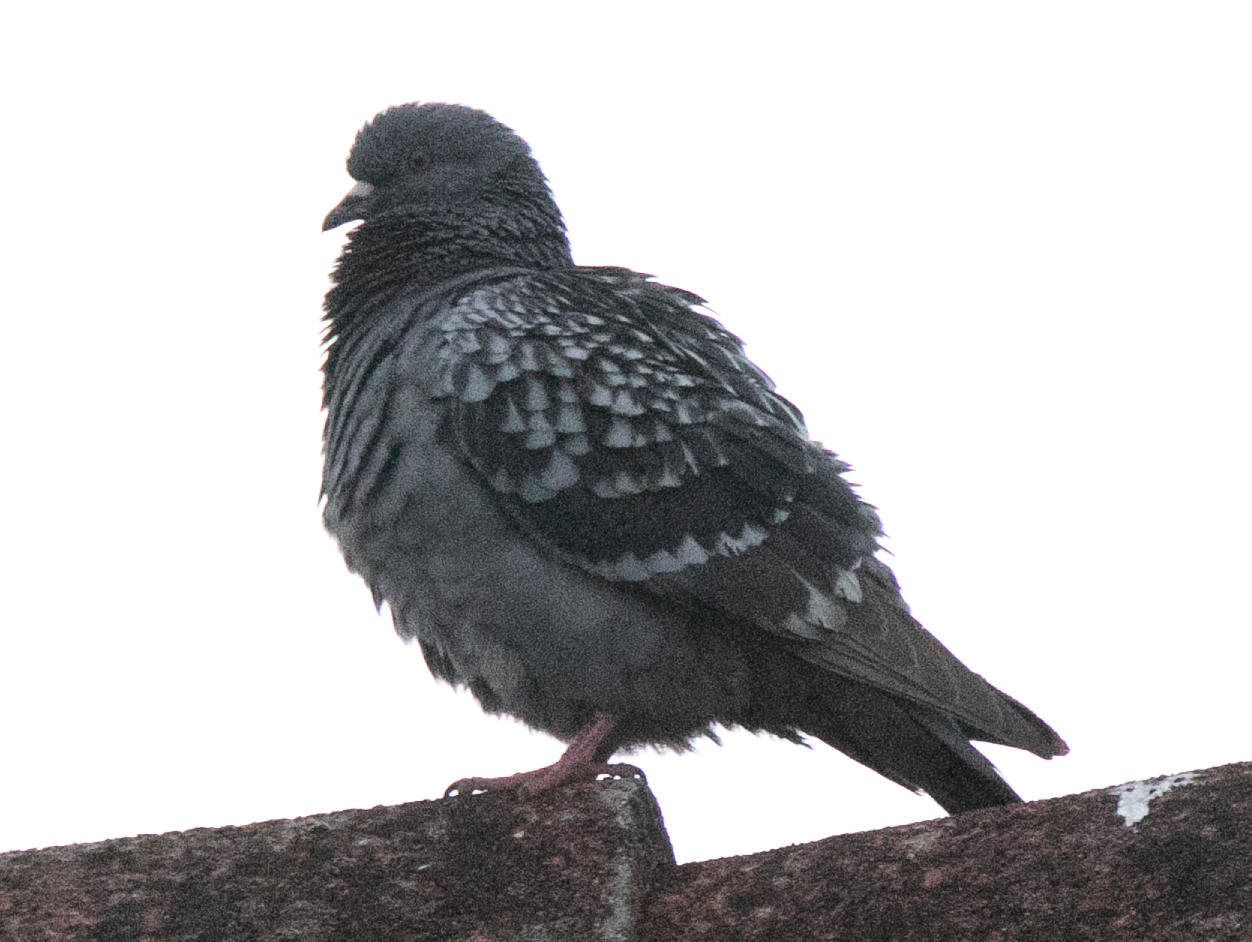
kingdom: Animalia
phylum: Chordata
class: Aves
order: Columbiformes
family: Columbidae
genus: Columba
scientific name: Columba livia
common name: Rock pigeon
